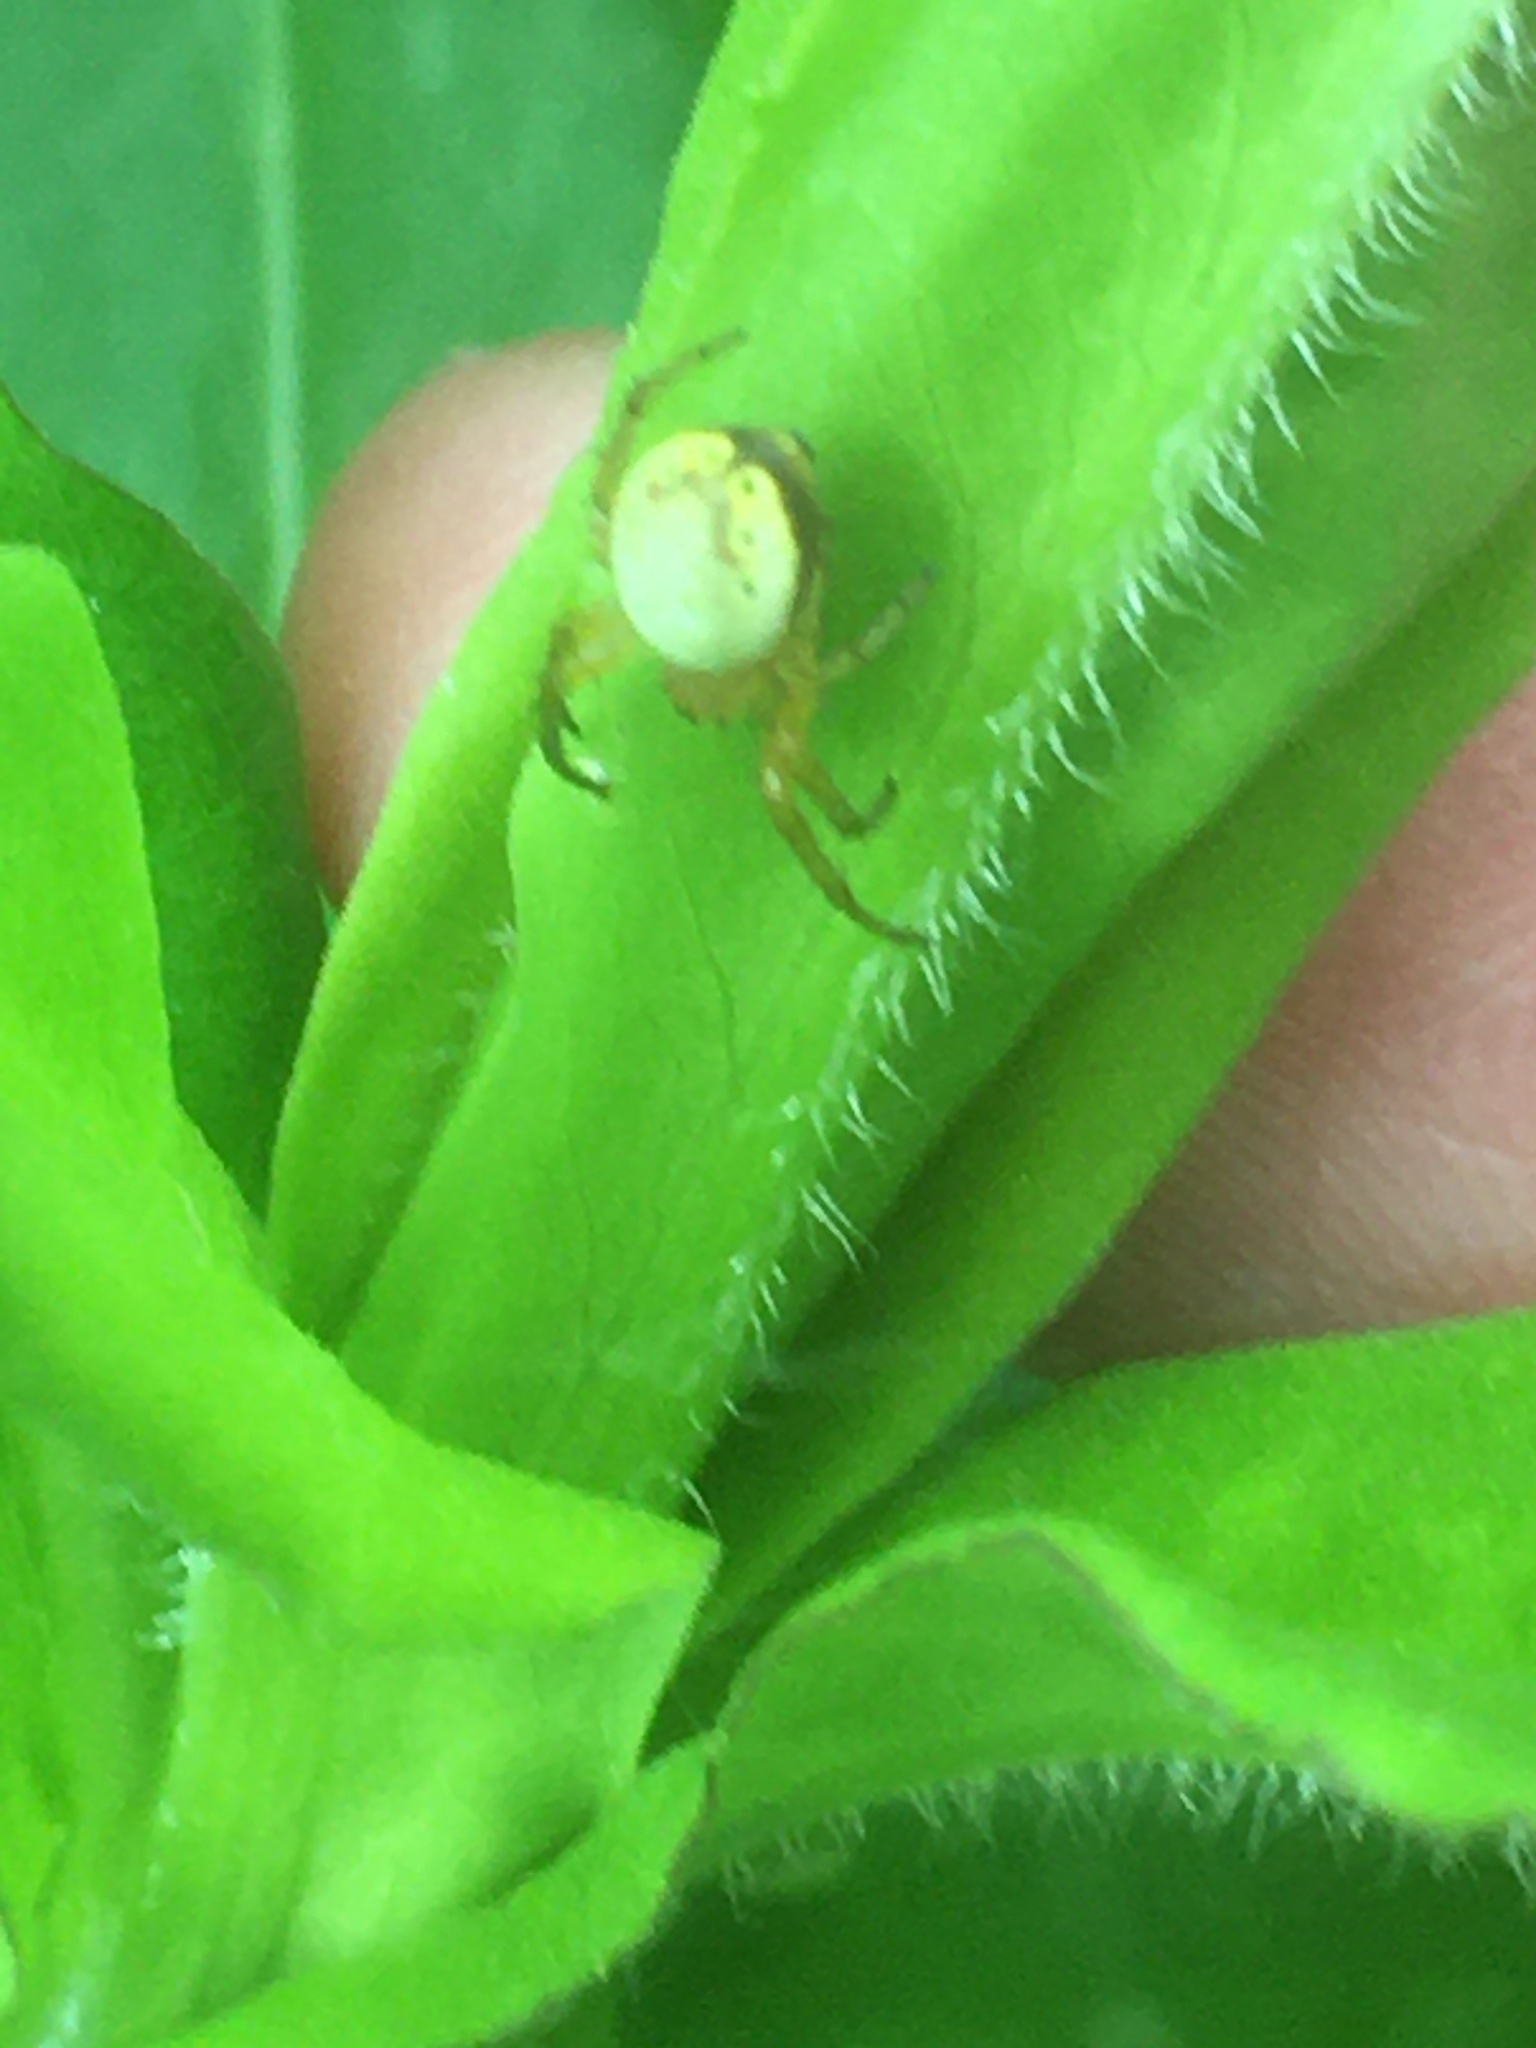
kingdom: Animalia
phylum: Arthropoda
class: Arachnida
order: Araneae
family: Araneidae
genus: Araniella
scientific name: Araniella displicata
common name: Sixspotted orb weaver
